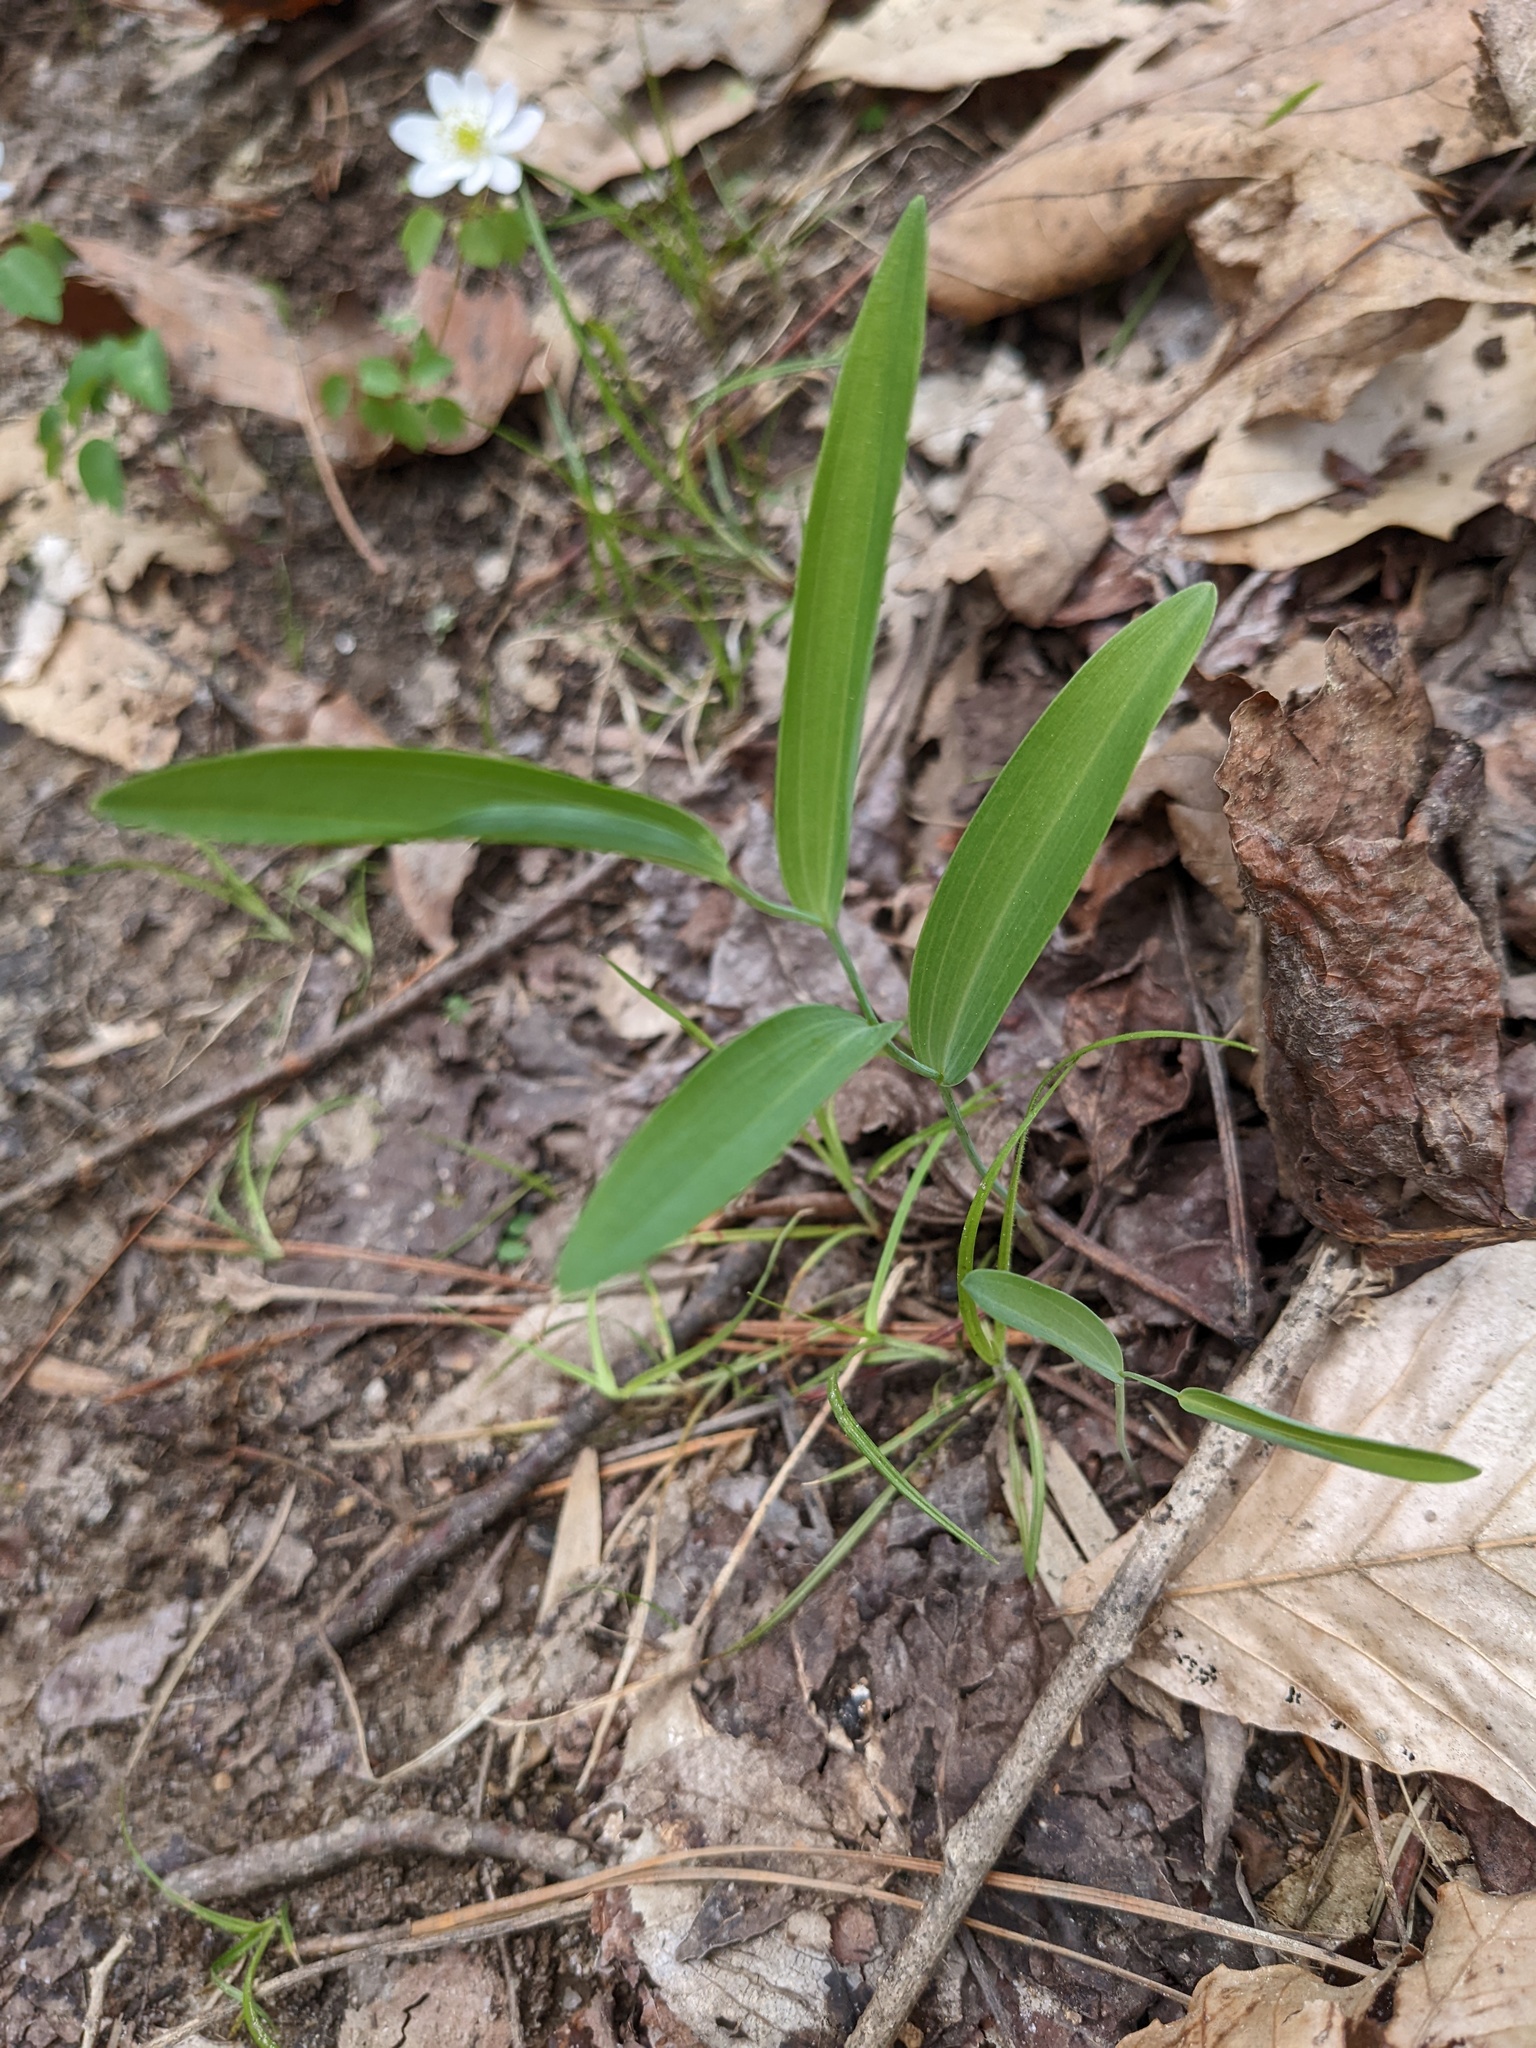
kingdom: Plantae
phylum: Tracheophyta
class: Liliopsida
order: Asparagales
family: Asparagaceae
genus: Polygonatum
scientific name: Polygonatum biflorum
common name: American solomon's-seal
